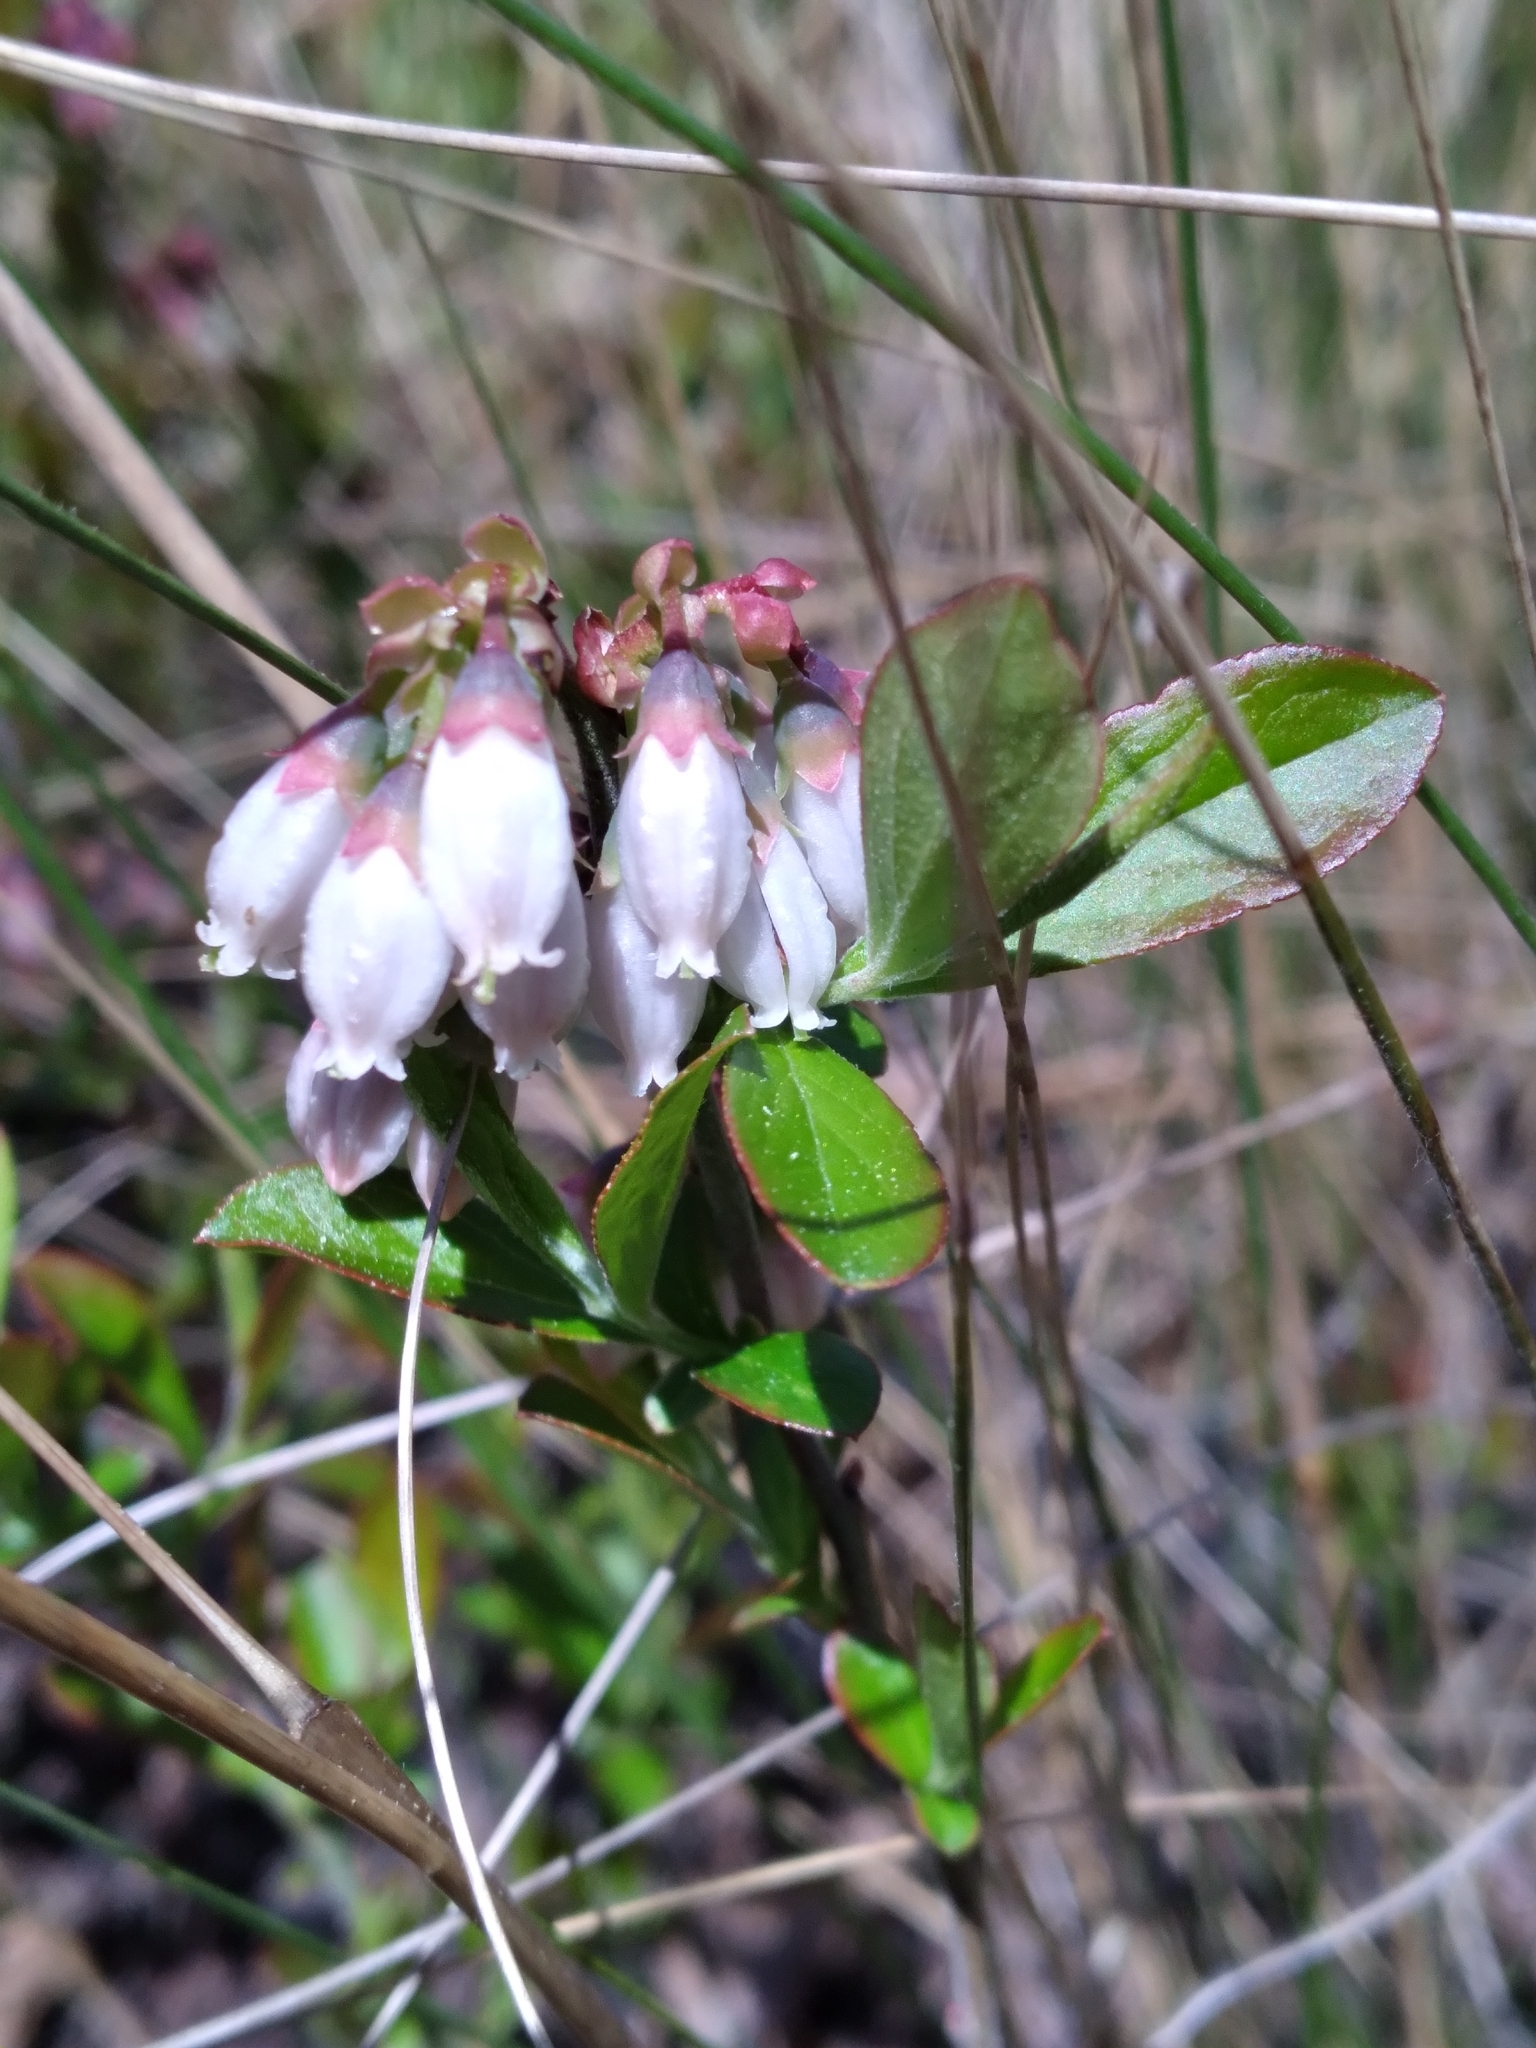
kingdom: Plantae
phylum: Tracheophyta
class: Magnoliopsida
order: Ericales
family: Ericaceae
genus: Vaccinium
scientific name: Vaccinium tenellum
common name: Southern blueberry
